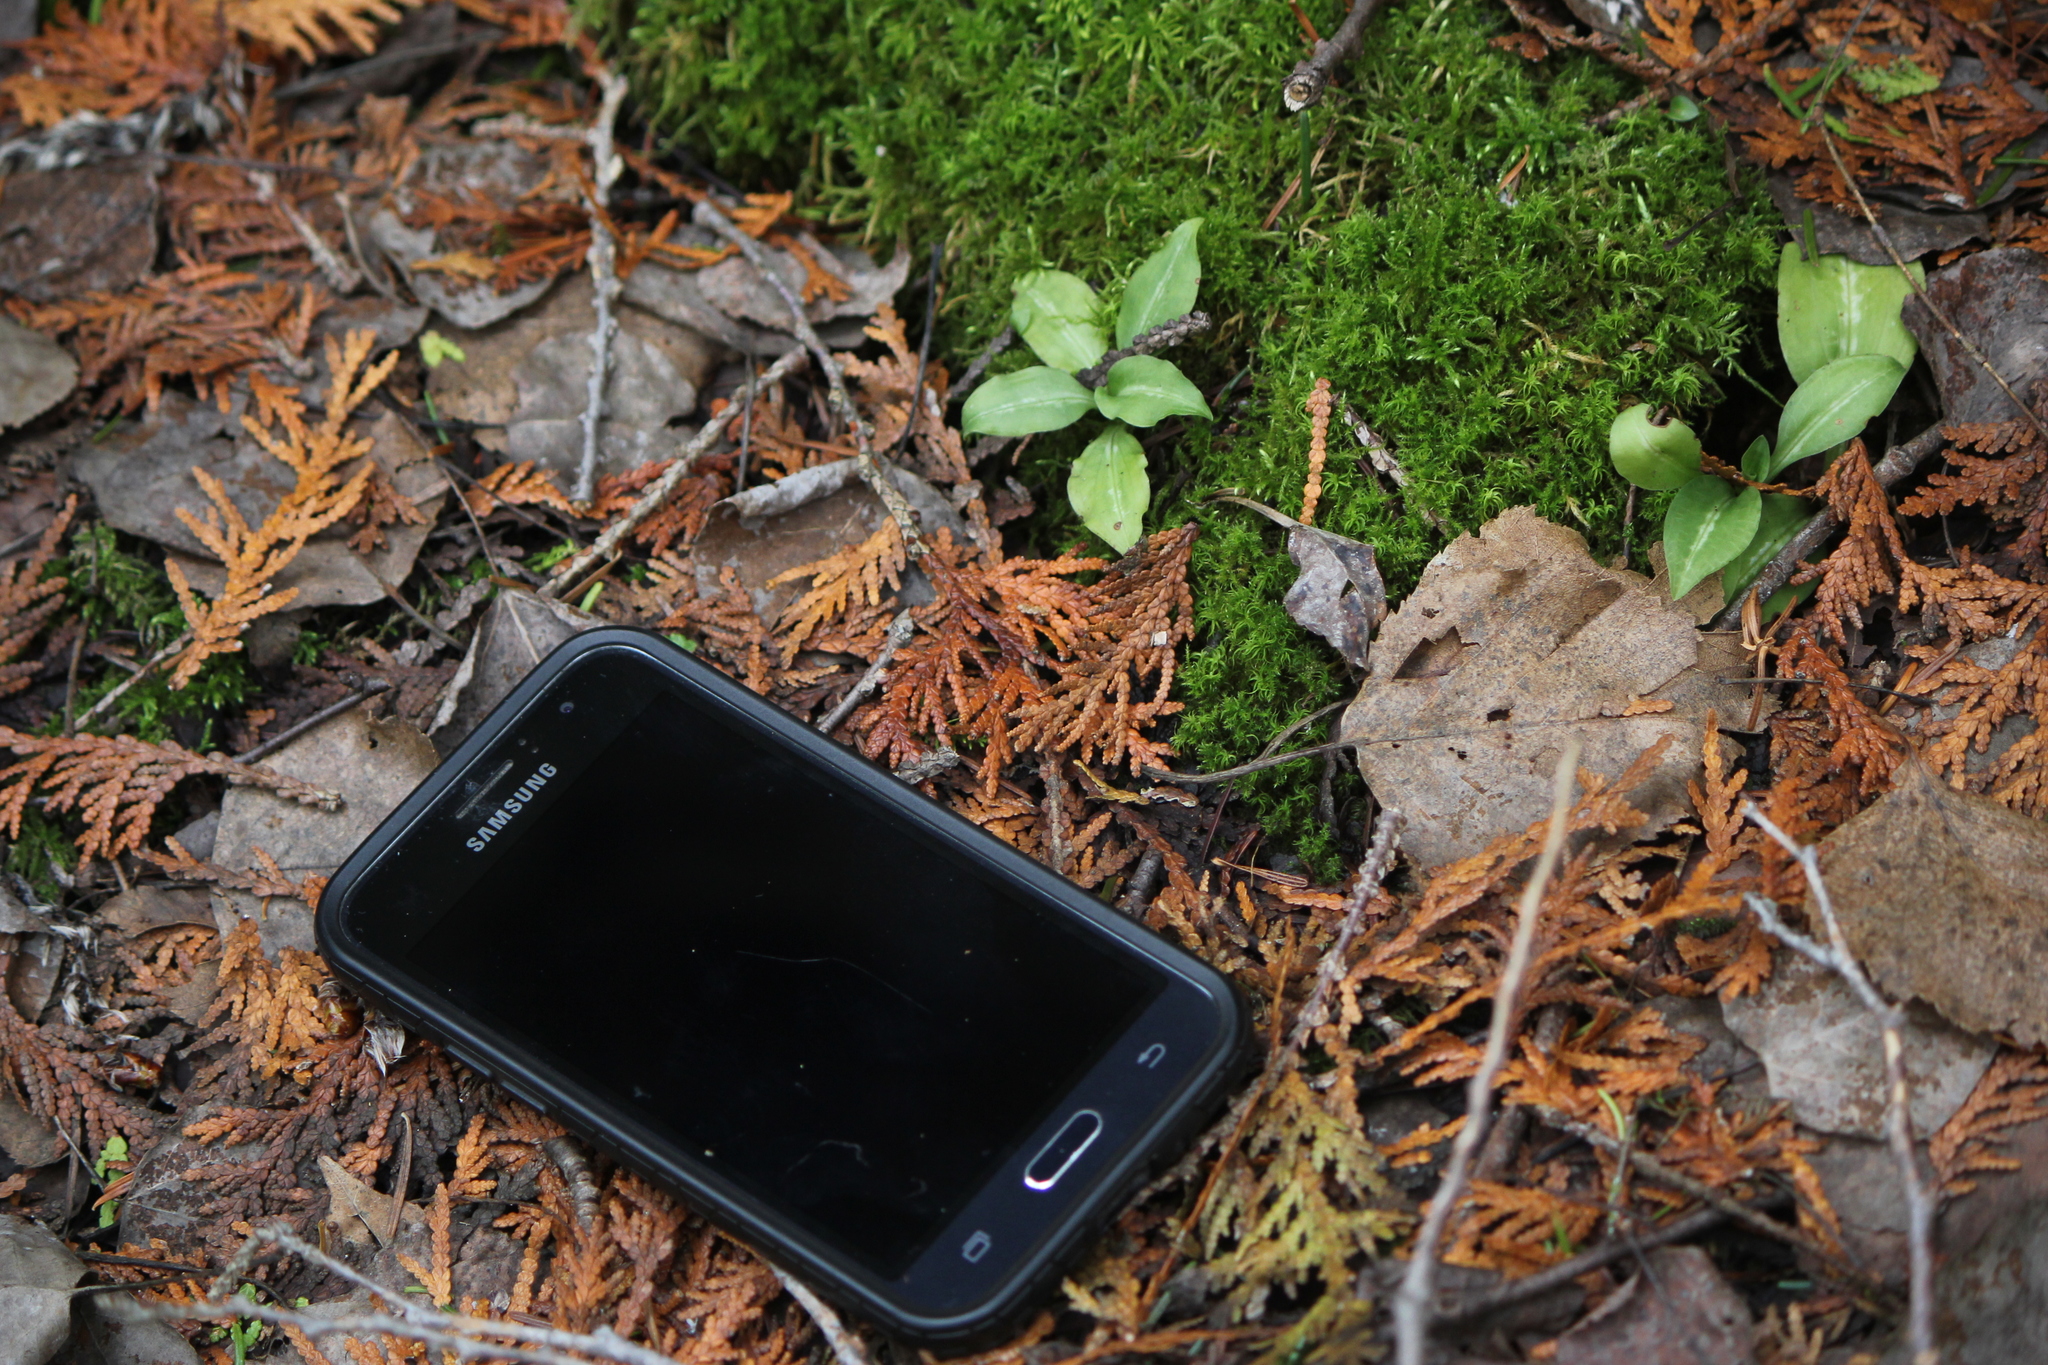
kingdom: Plantae
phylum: Tracheophyta
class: Liliopsida
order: Asparagales
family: Orchidaceae
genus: Goodyera
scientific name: Goodyera oblongifolia
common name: Giant rattlesnake-plantain
